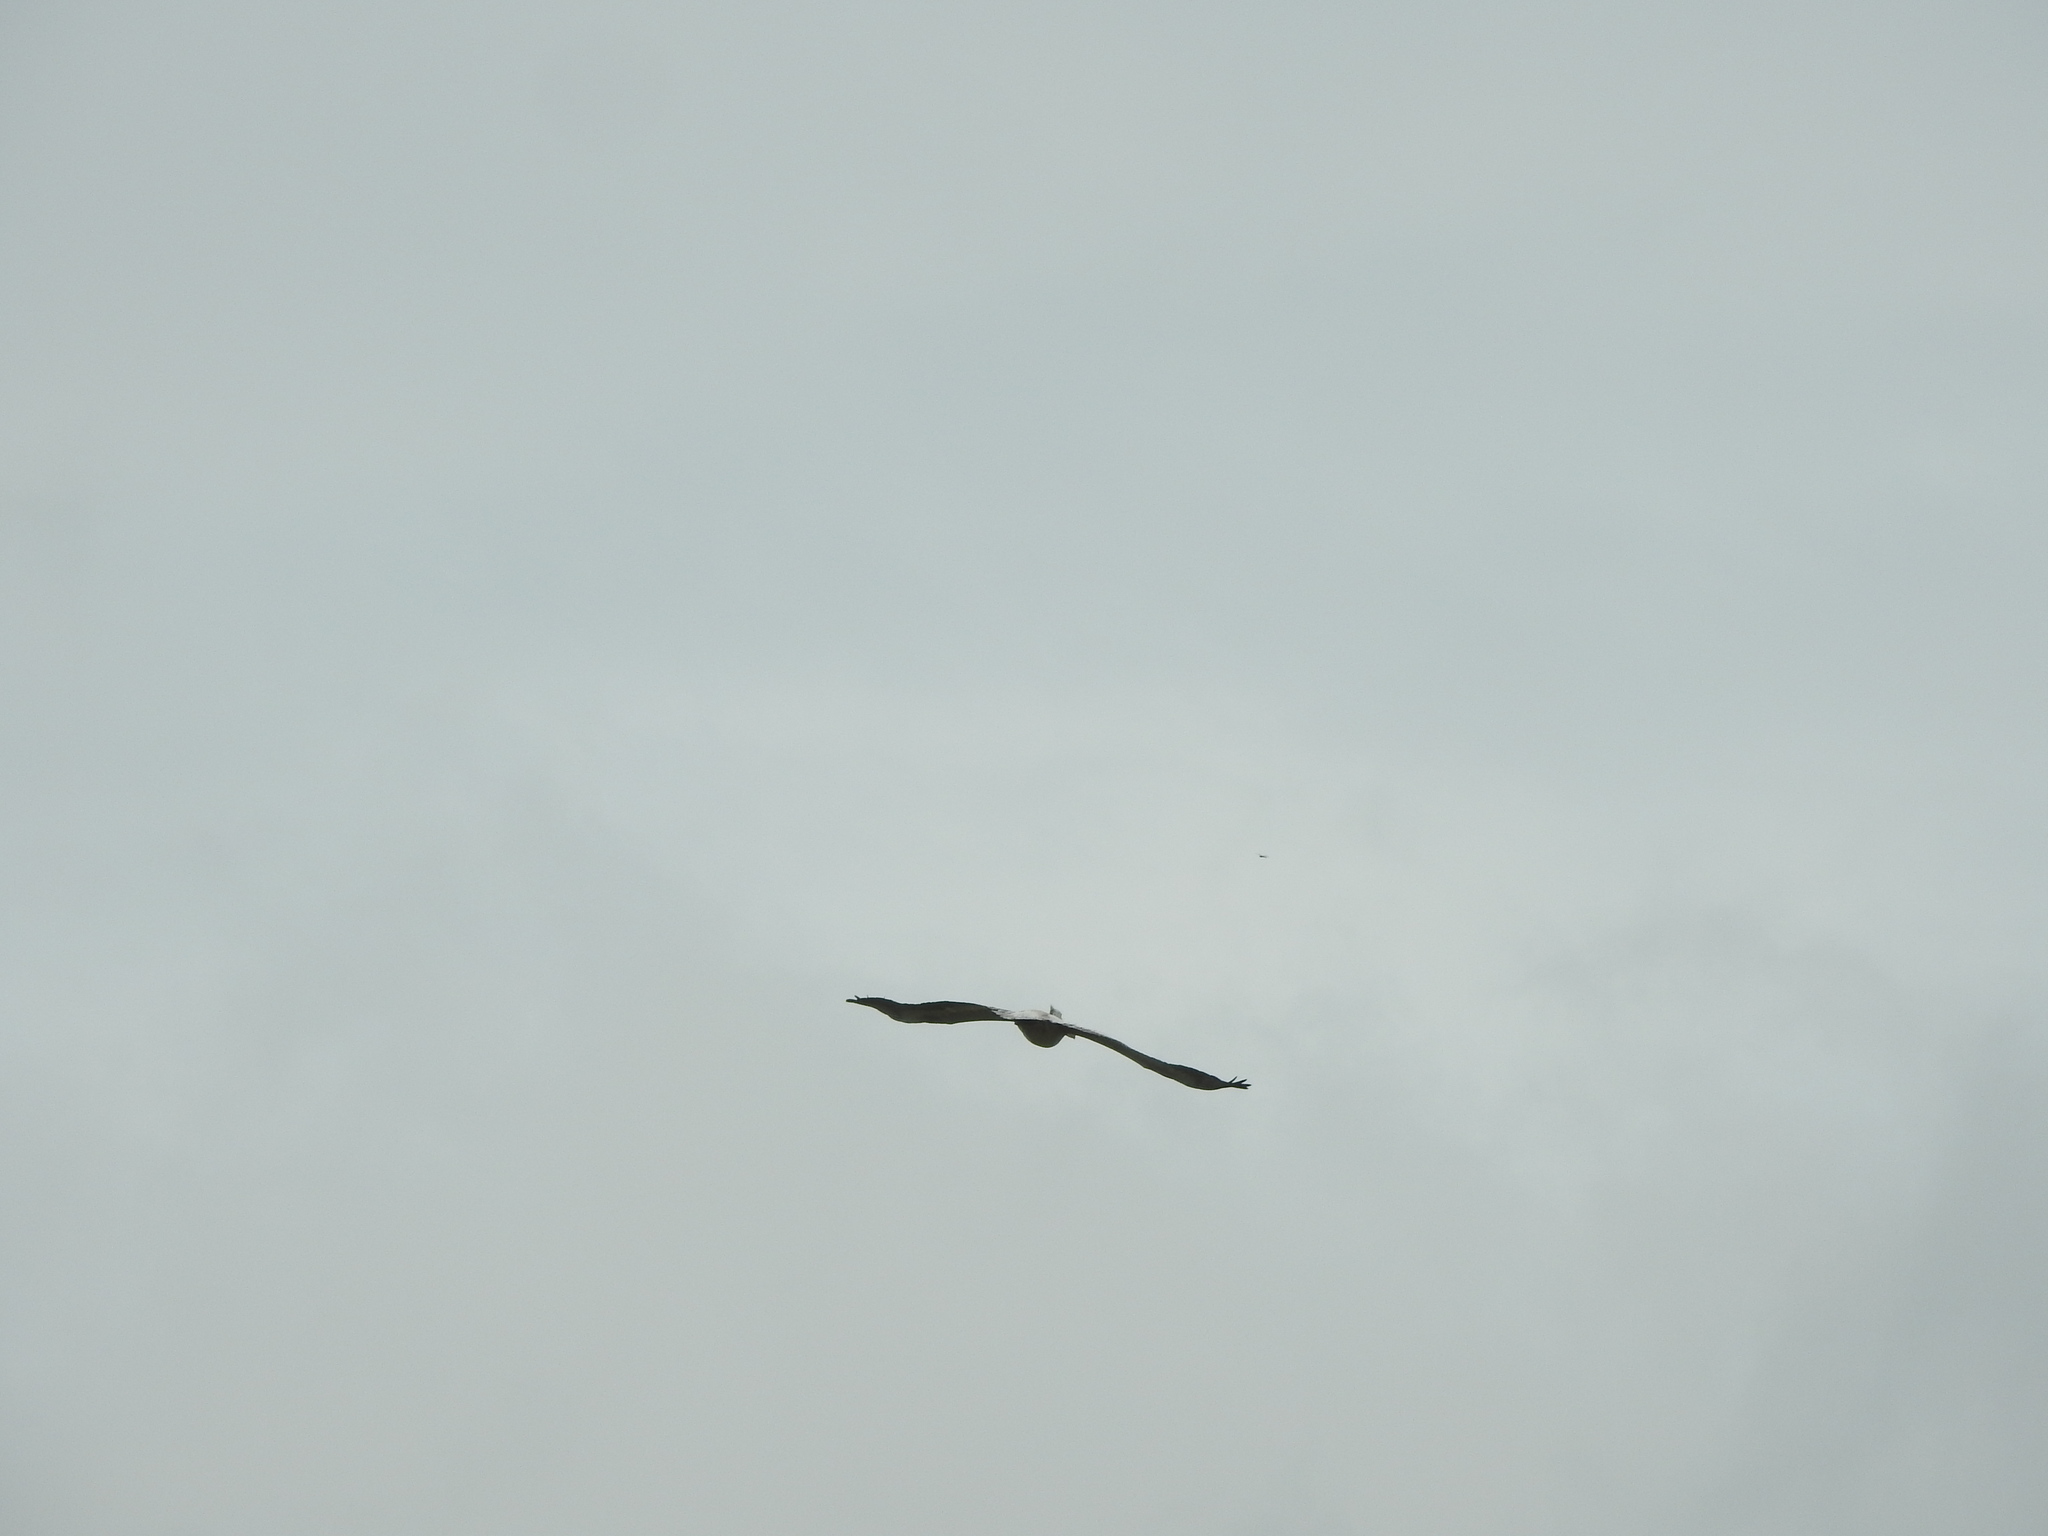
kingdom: Animalia
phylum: Chordata
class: Aves
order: Pelecaniformes
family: Pelecanidae
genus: Pelecanus
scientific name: Pelecanus philippensis
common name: Spot-billed pelican
